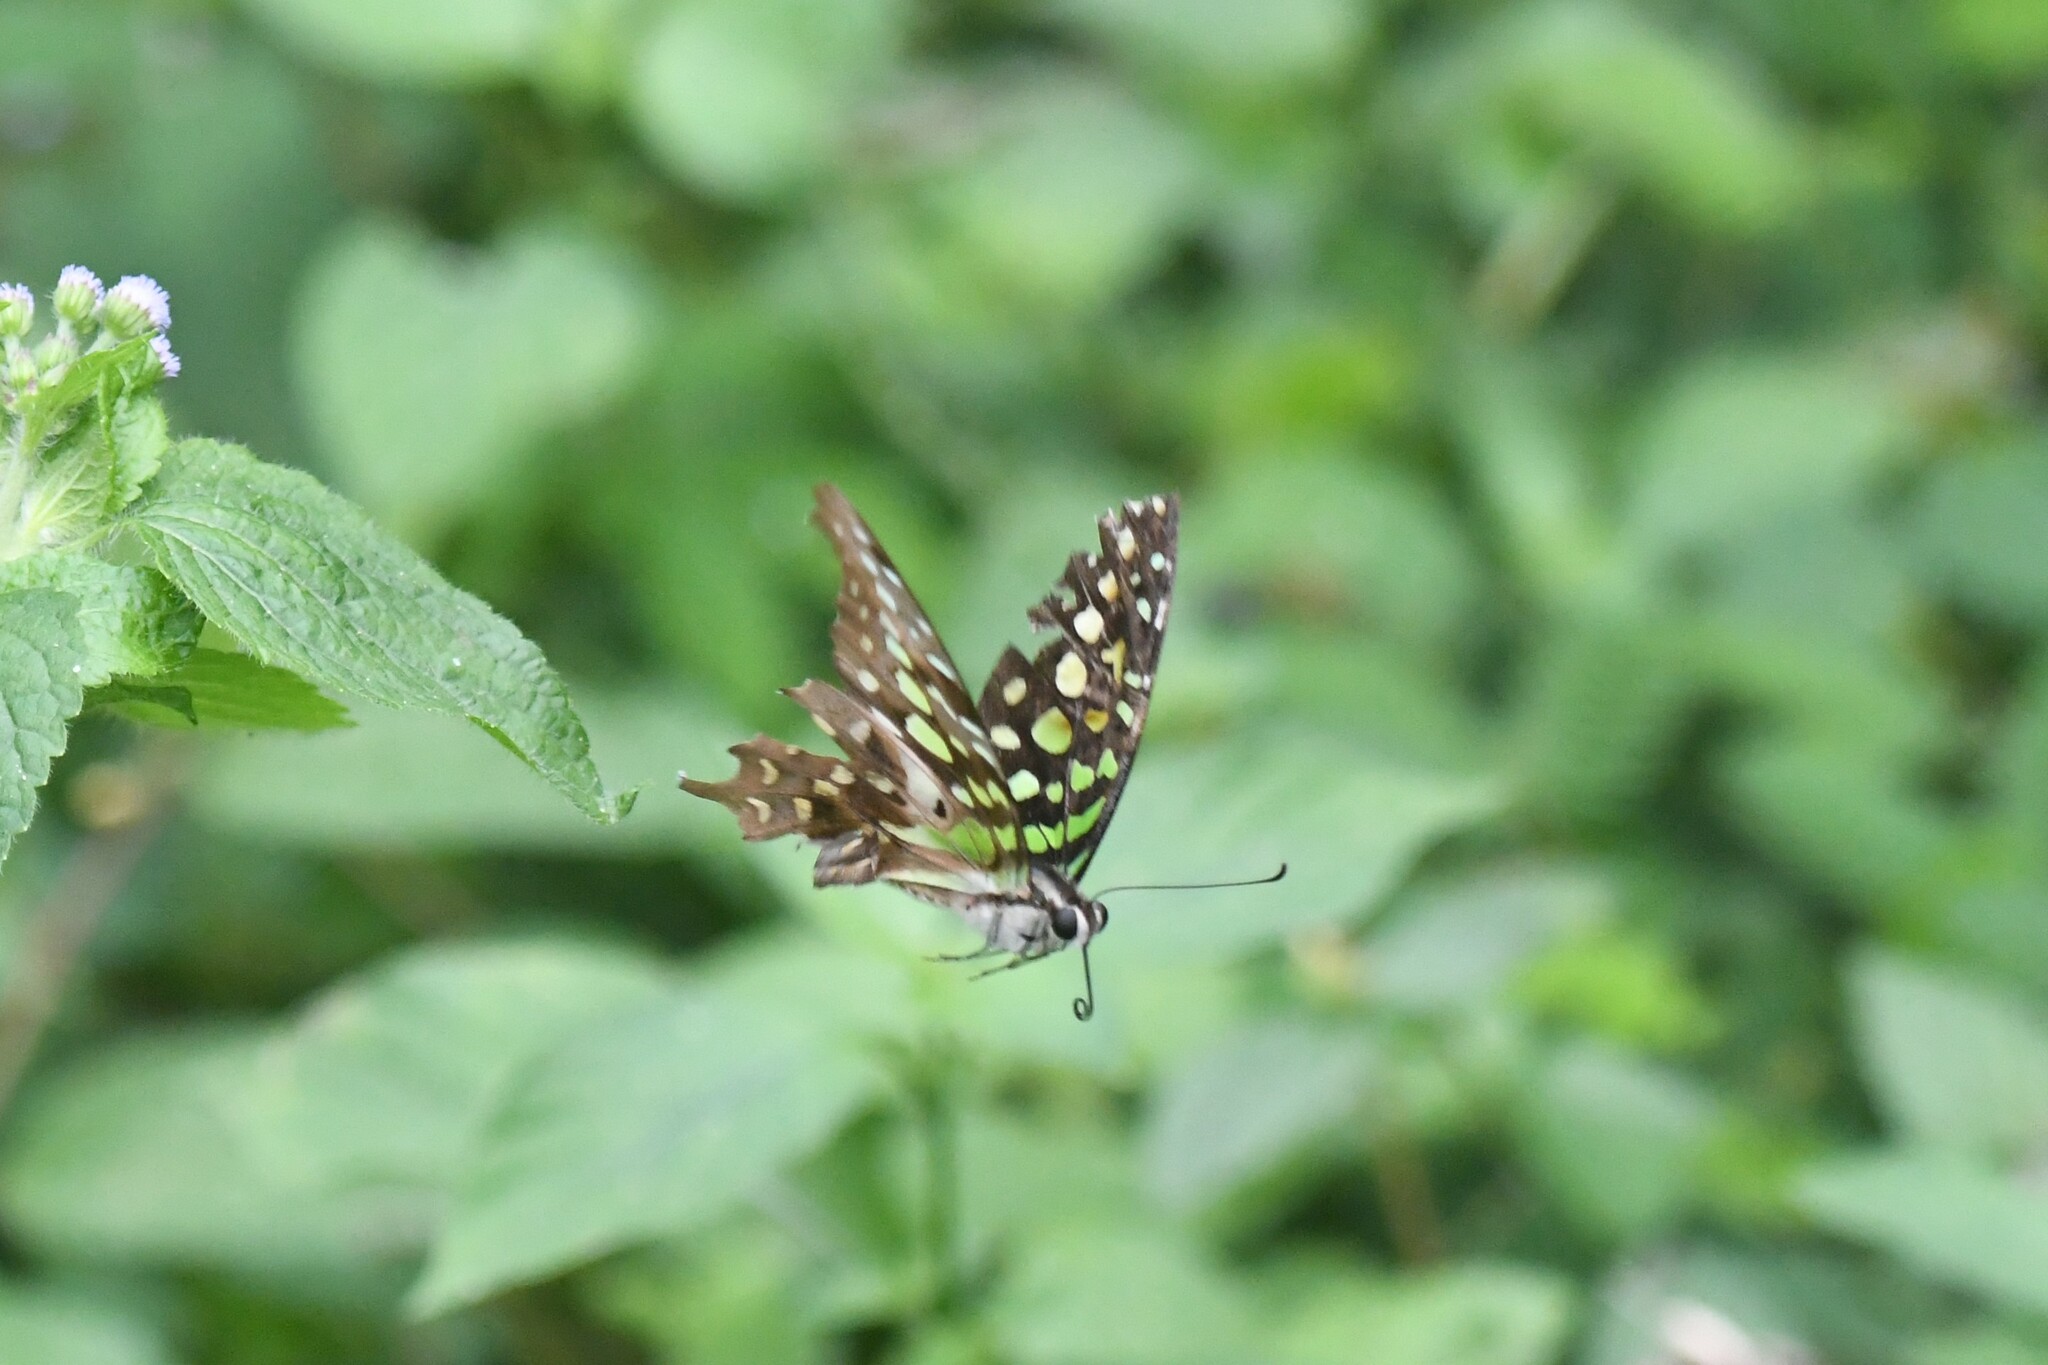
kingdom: Animalia
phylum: Arthropoda
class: Insecta
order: Lepidoptera
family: Papilionidae
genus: Graphium
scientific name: Graphium agamemnon
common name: Tailed jay
